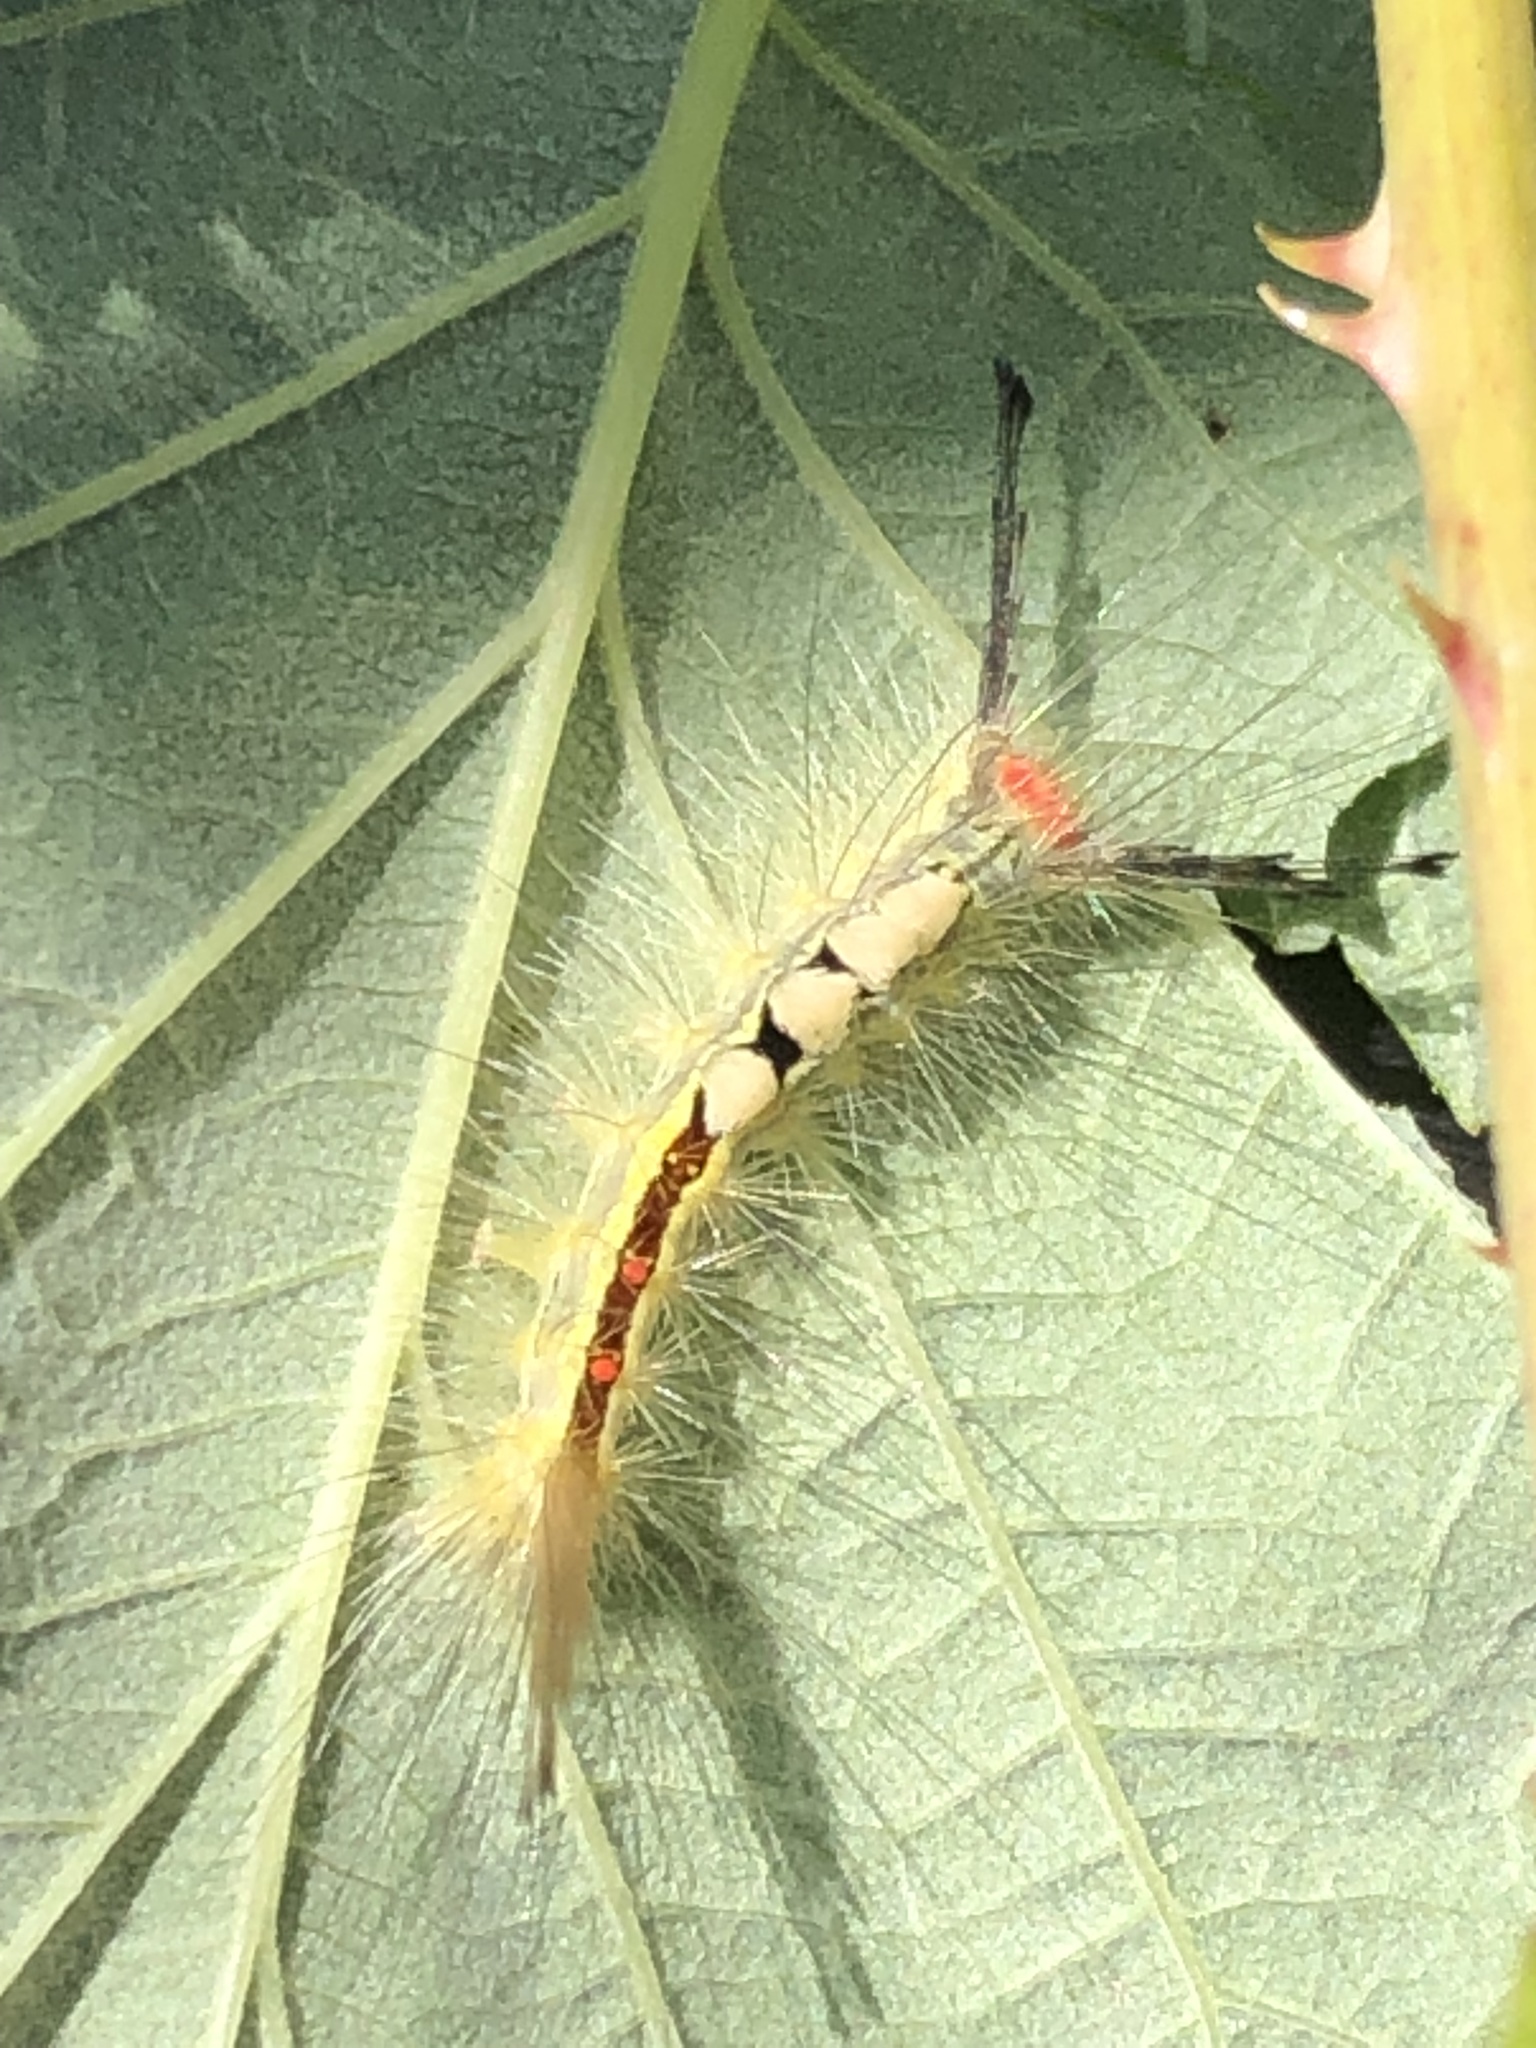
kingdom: Animalia
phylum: Arthropoda
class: Insecta
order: Lepidoptera
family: Erebidae
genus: Orgyia
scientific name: Orgyia leucostigma
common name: White-marked tussock moth
